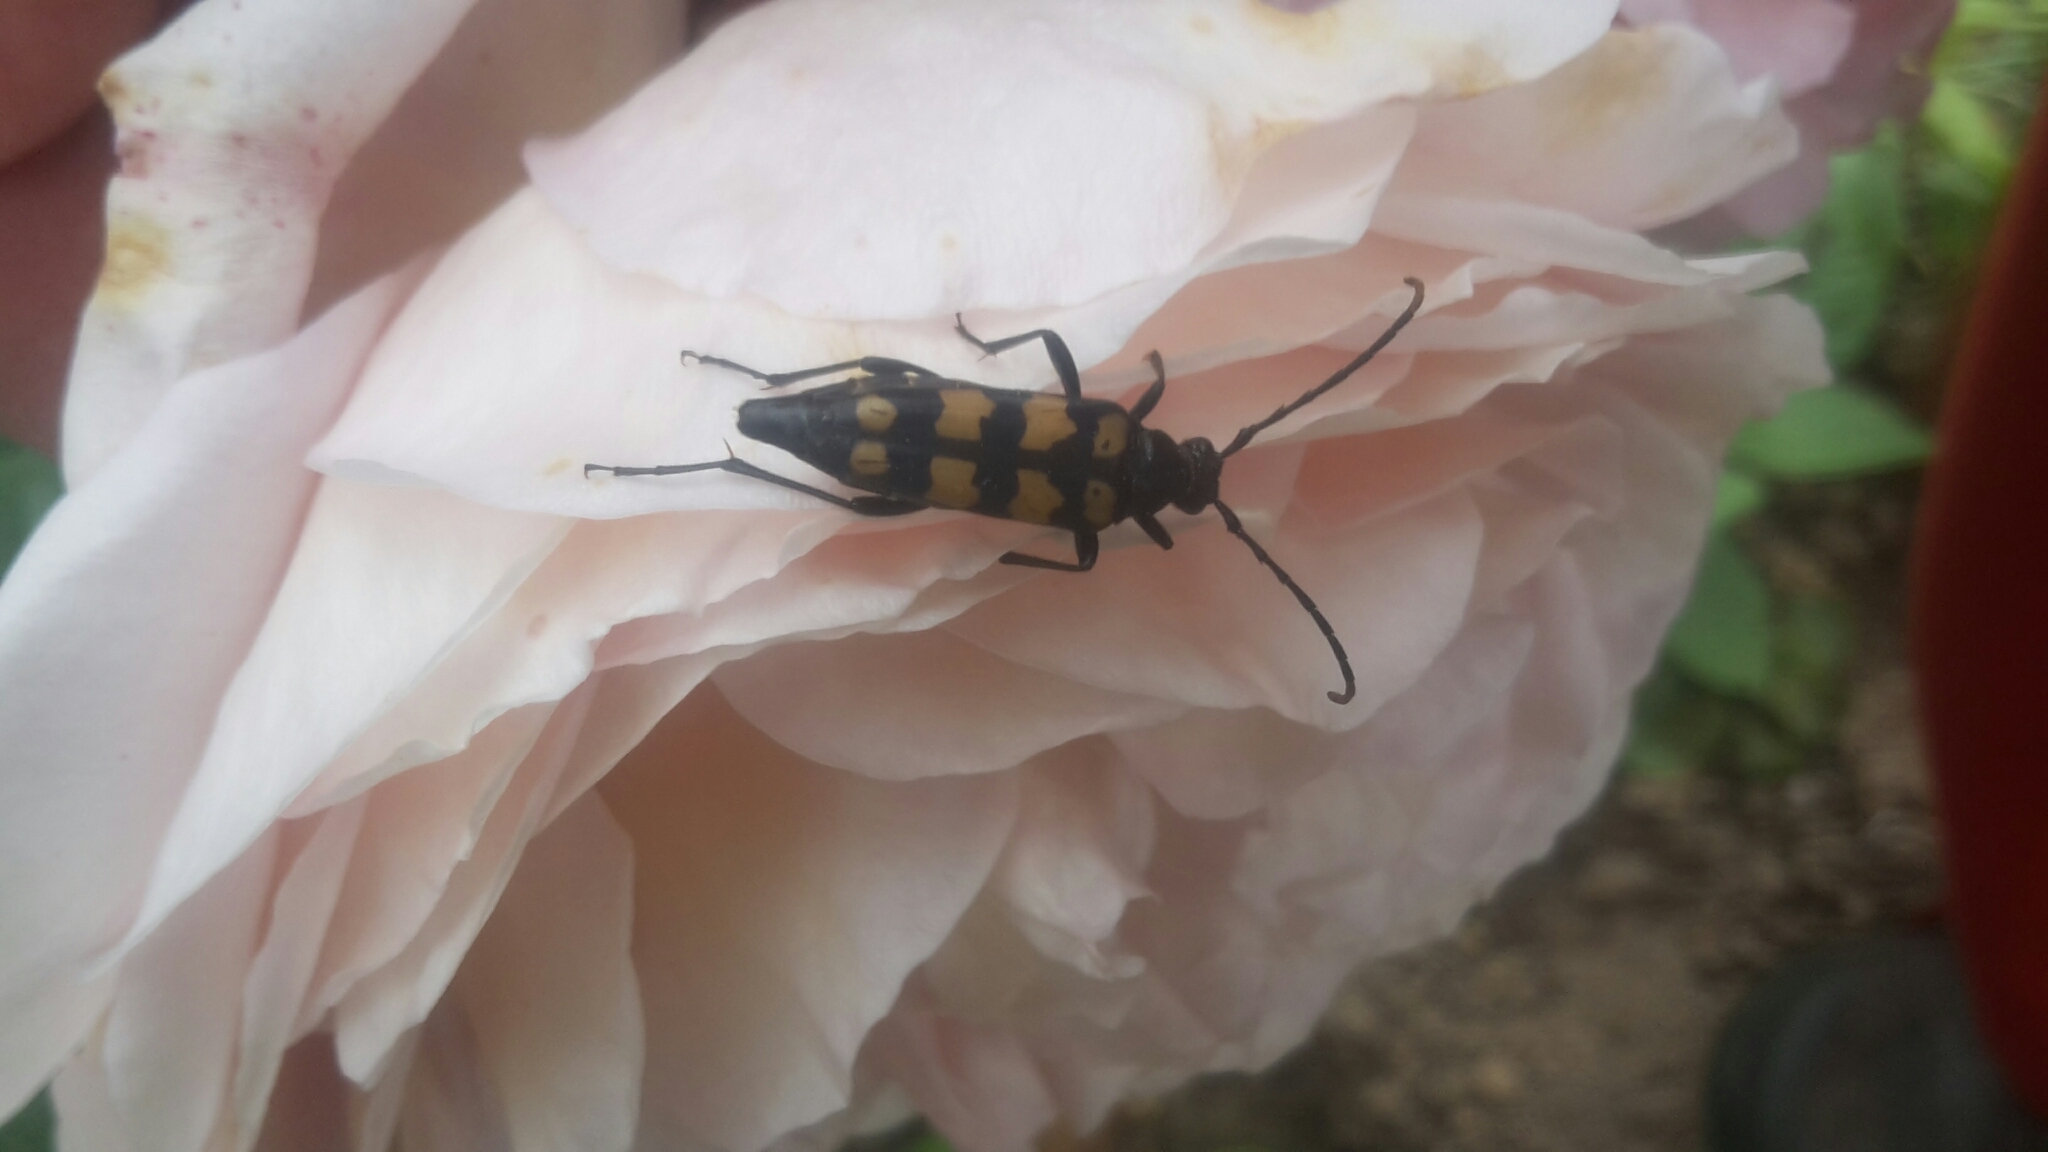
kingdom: Animalia
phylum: Arthropoda
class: Insecta
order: Coleoptera
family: Cerambycidae
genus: Leptura
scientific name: Leptura quadrifasciata
